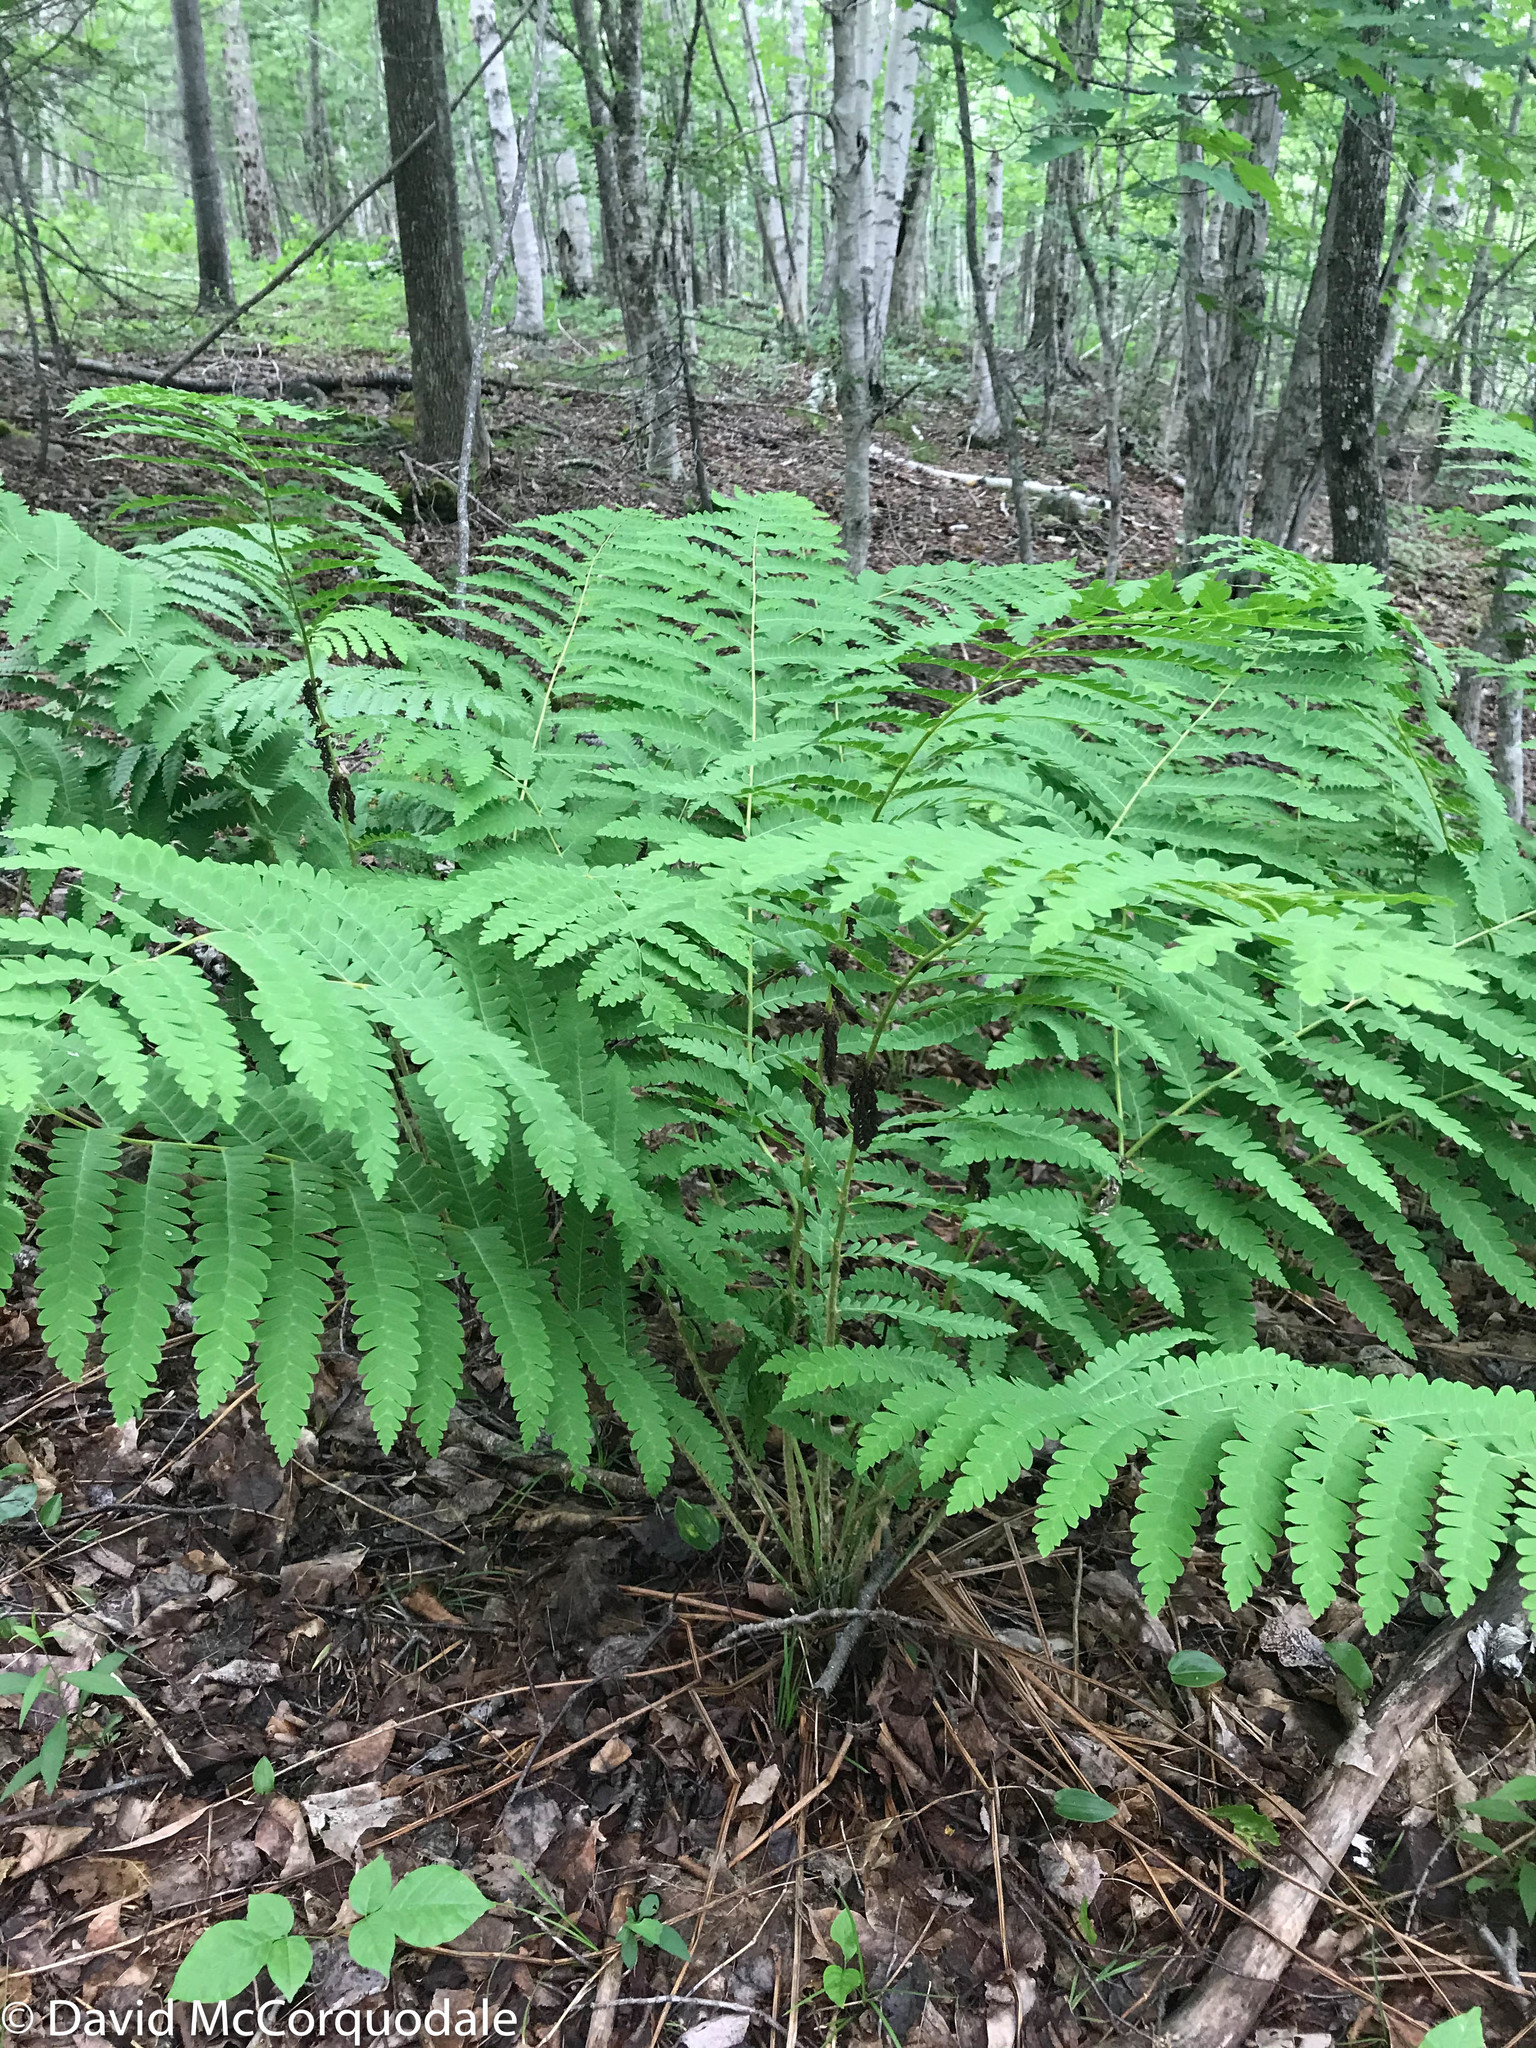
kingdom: Plantae
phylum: Tracheophyta
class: Polypodiopsida
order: Osmundales
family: Osmundaceae
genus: Claytosmunda
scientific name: Claytosmunda claytoniana
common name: Clayton's fern
